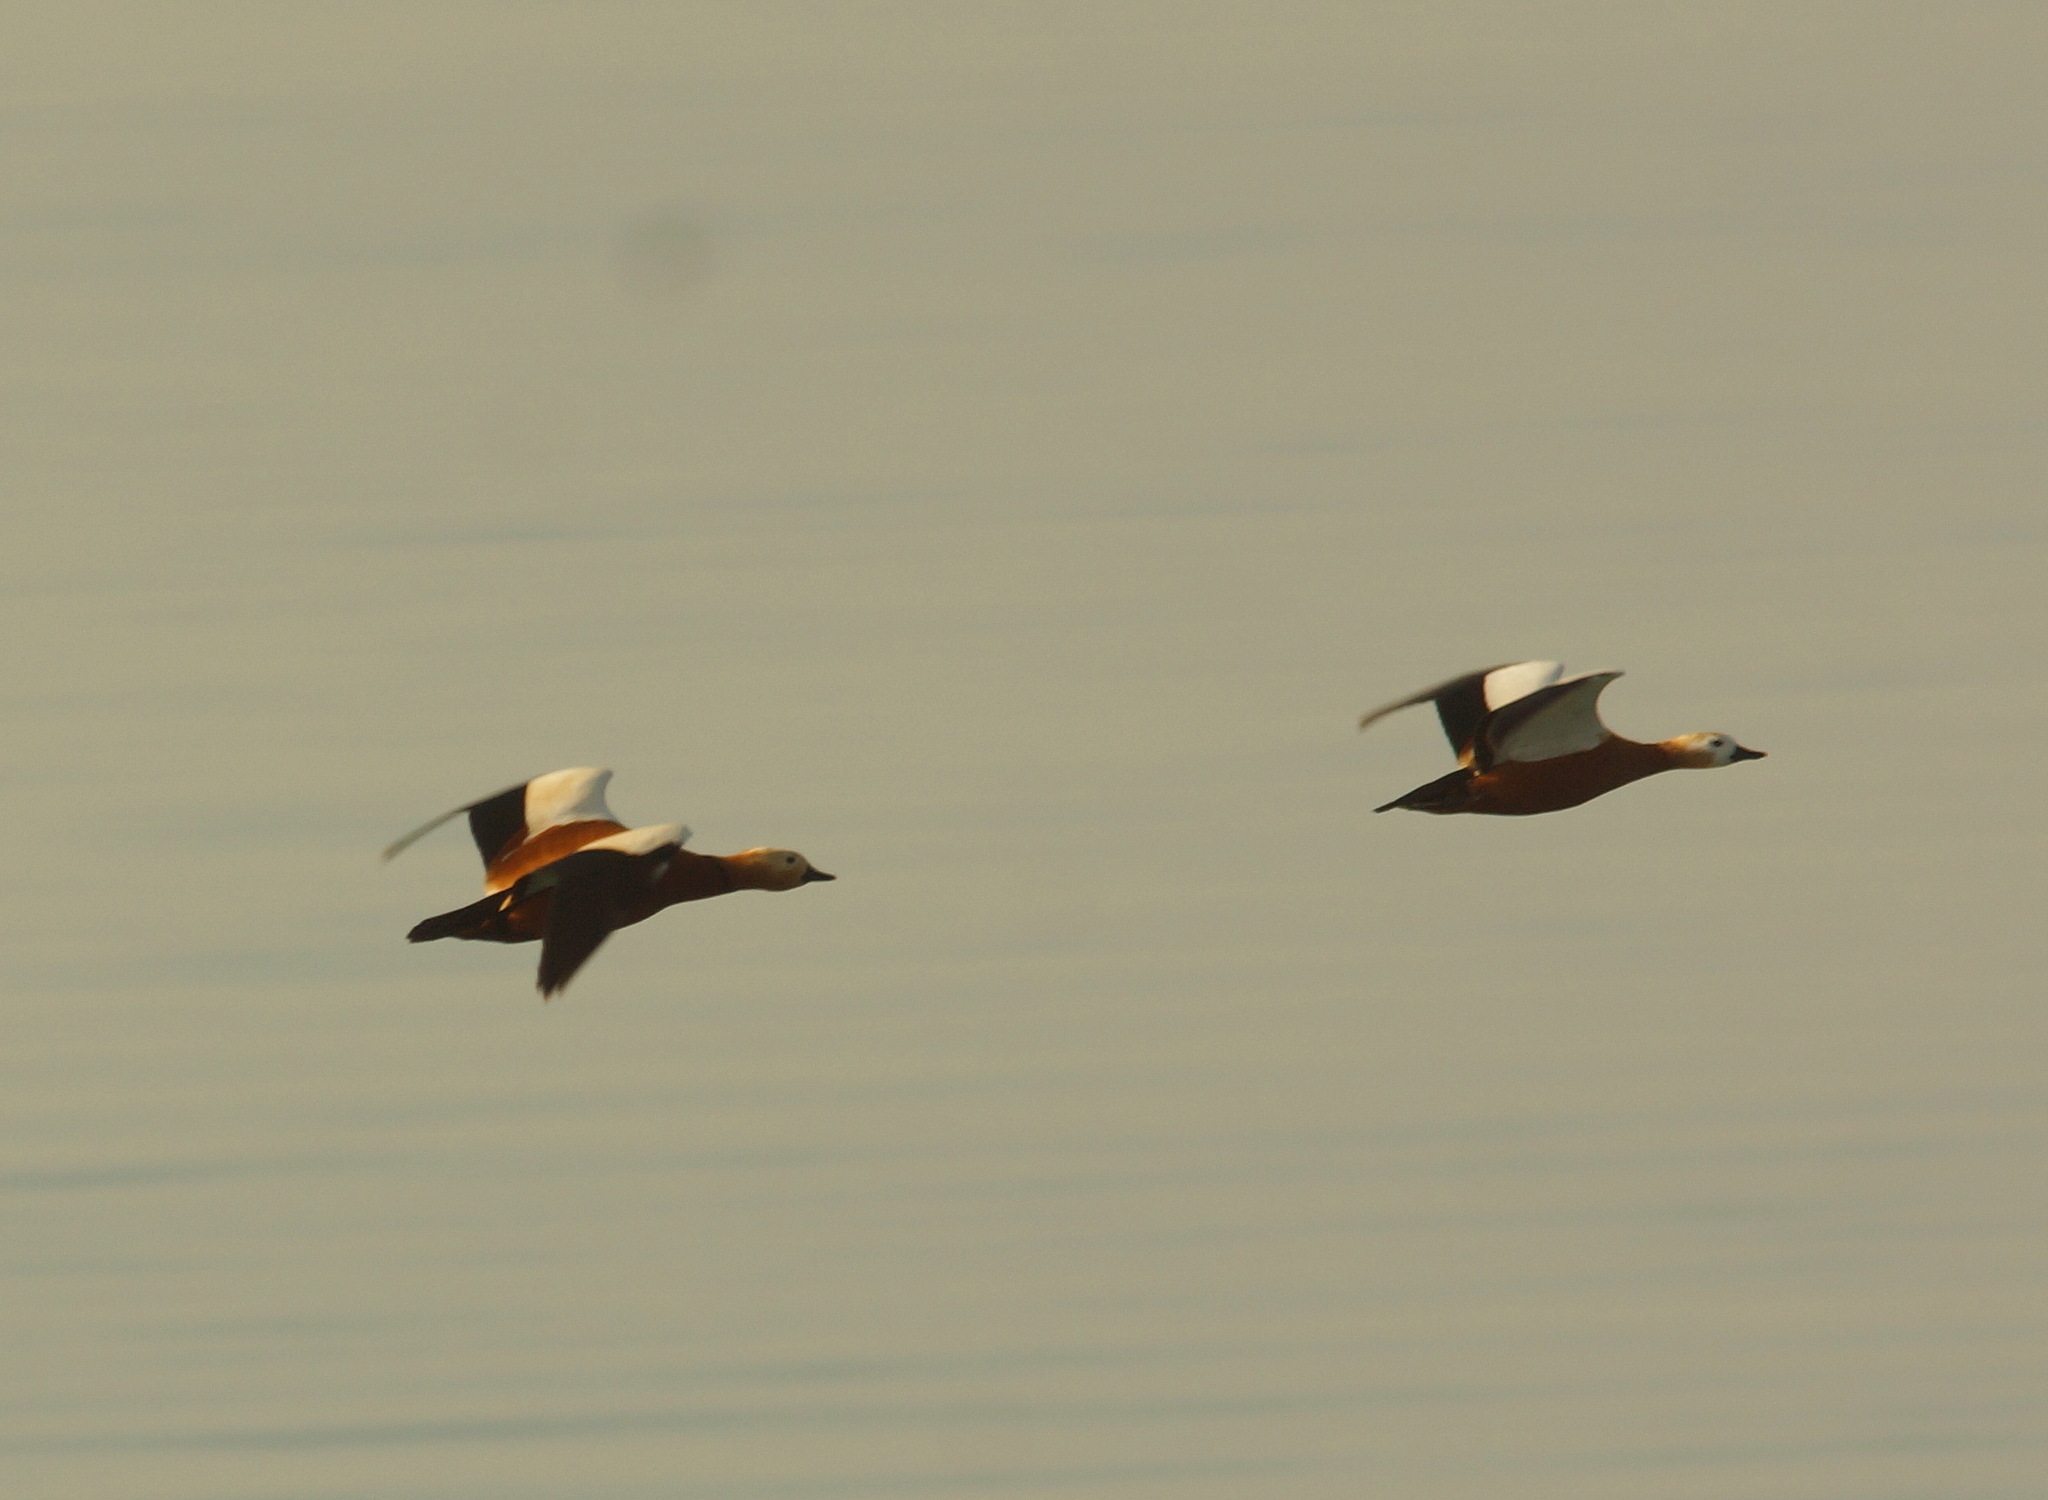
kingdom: Animalia
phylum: Chordata
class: Aves
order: Anseriformes
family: Anatidae
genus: Tadorna
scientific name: Tadorna ferruginea
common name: Ruddy shelduck
